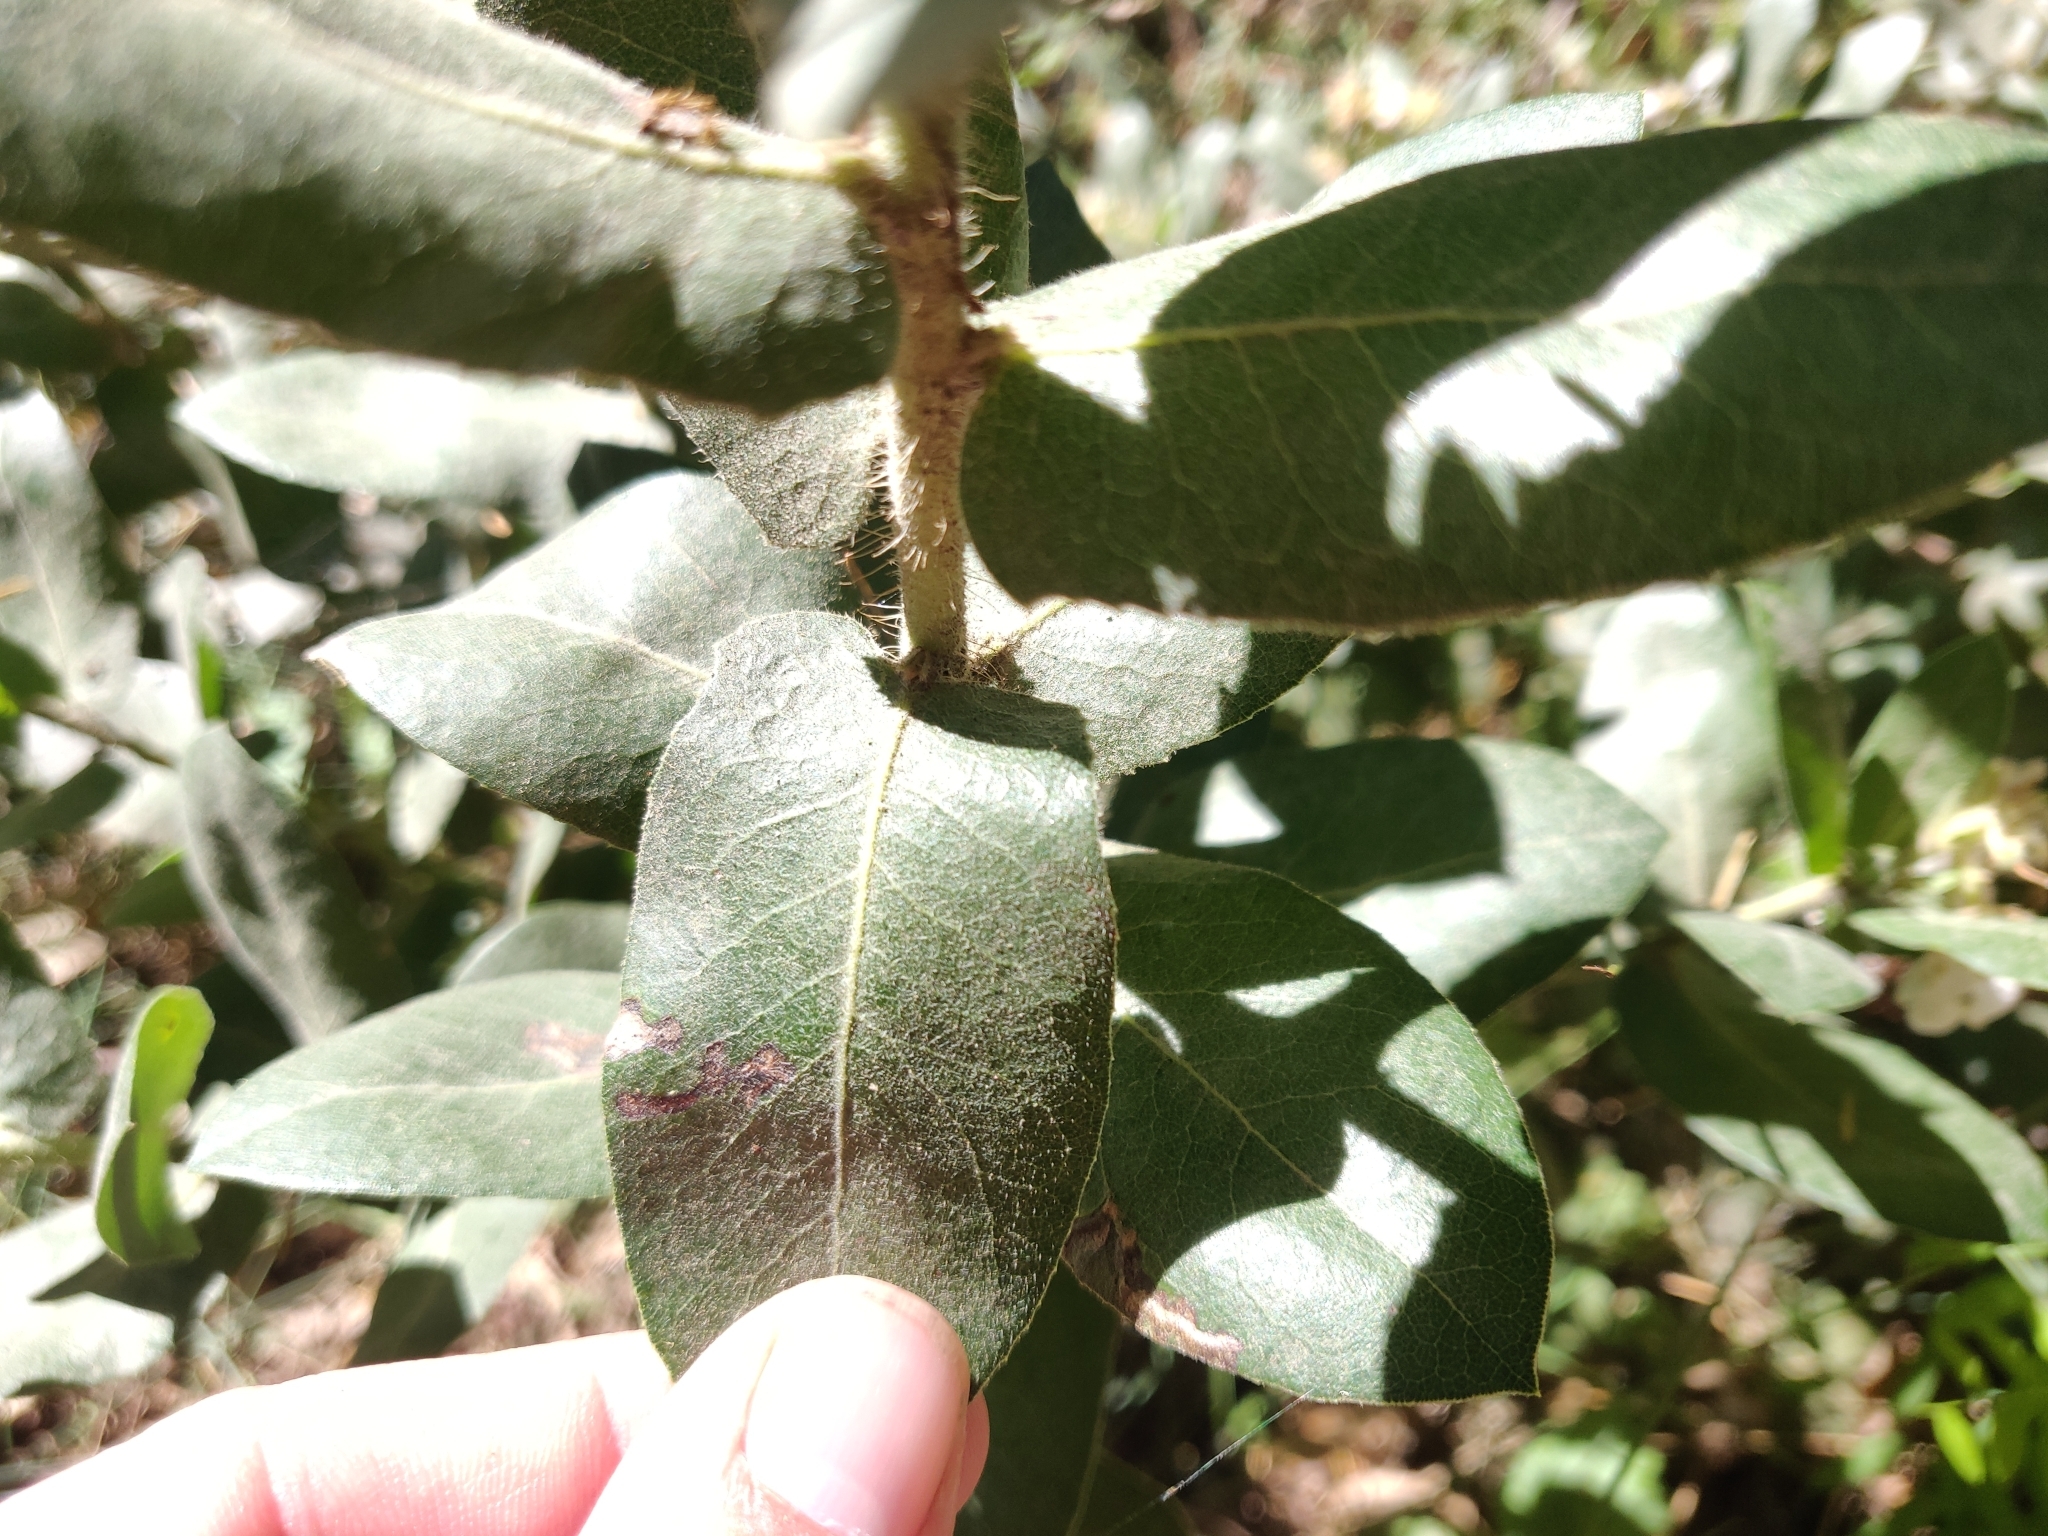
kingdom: Plantae
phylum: Tracheophyta
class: Magnoliopsida
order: Ericales
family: Ericaceae
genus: Arctostaphylos
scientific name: Arctostaphylos regismontana
